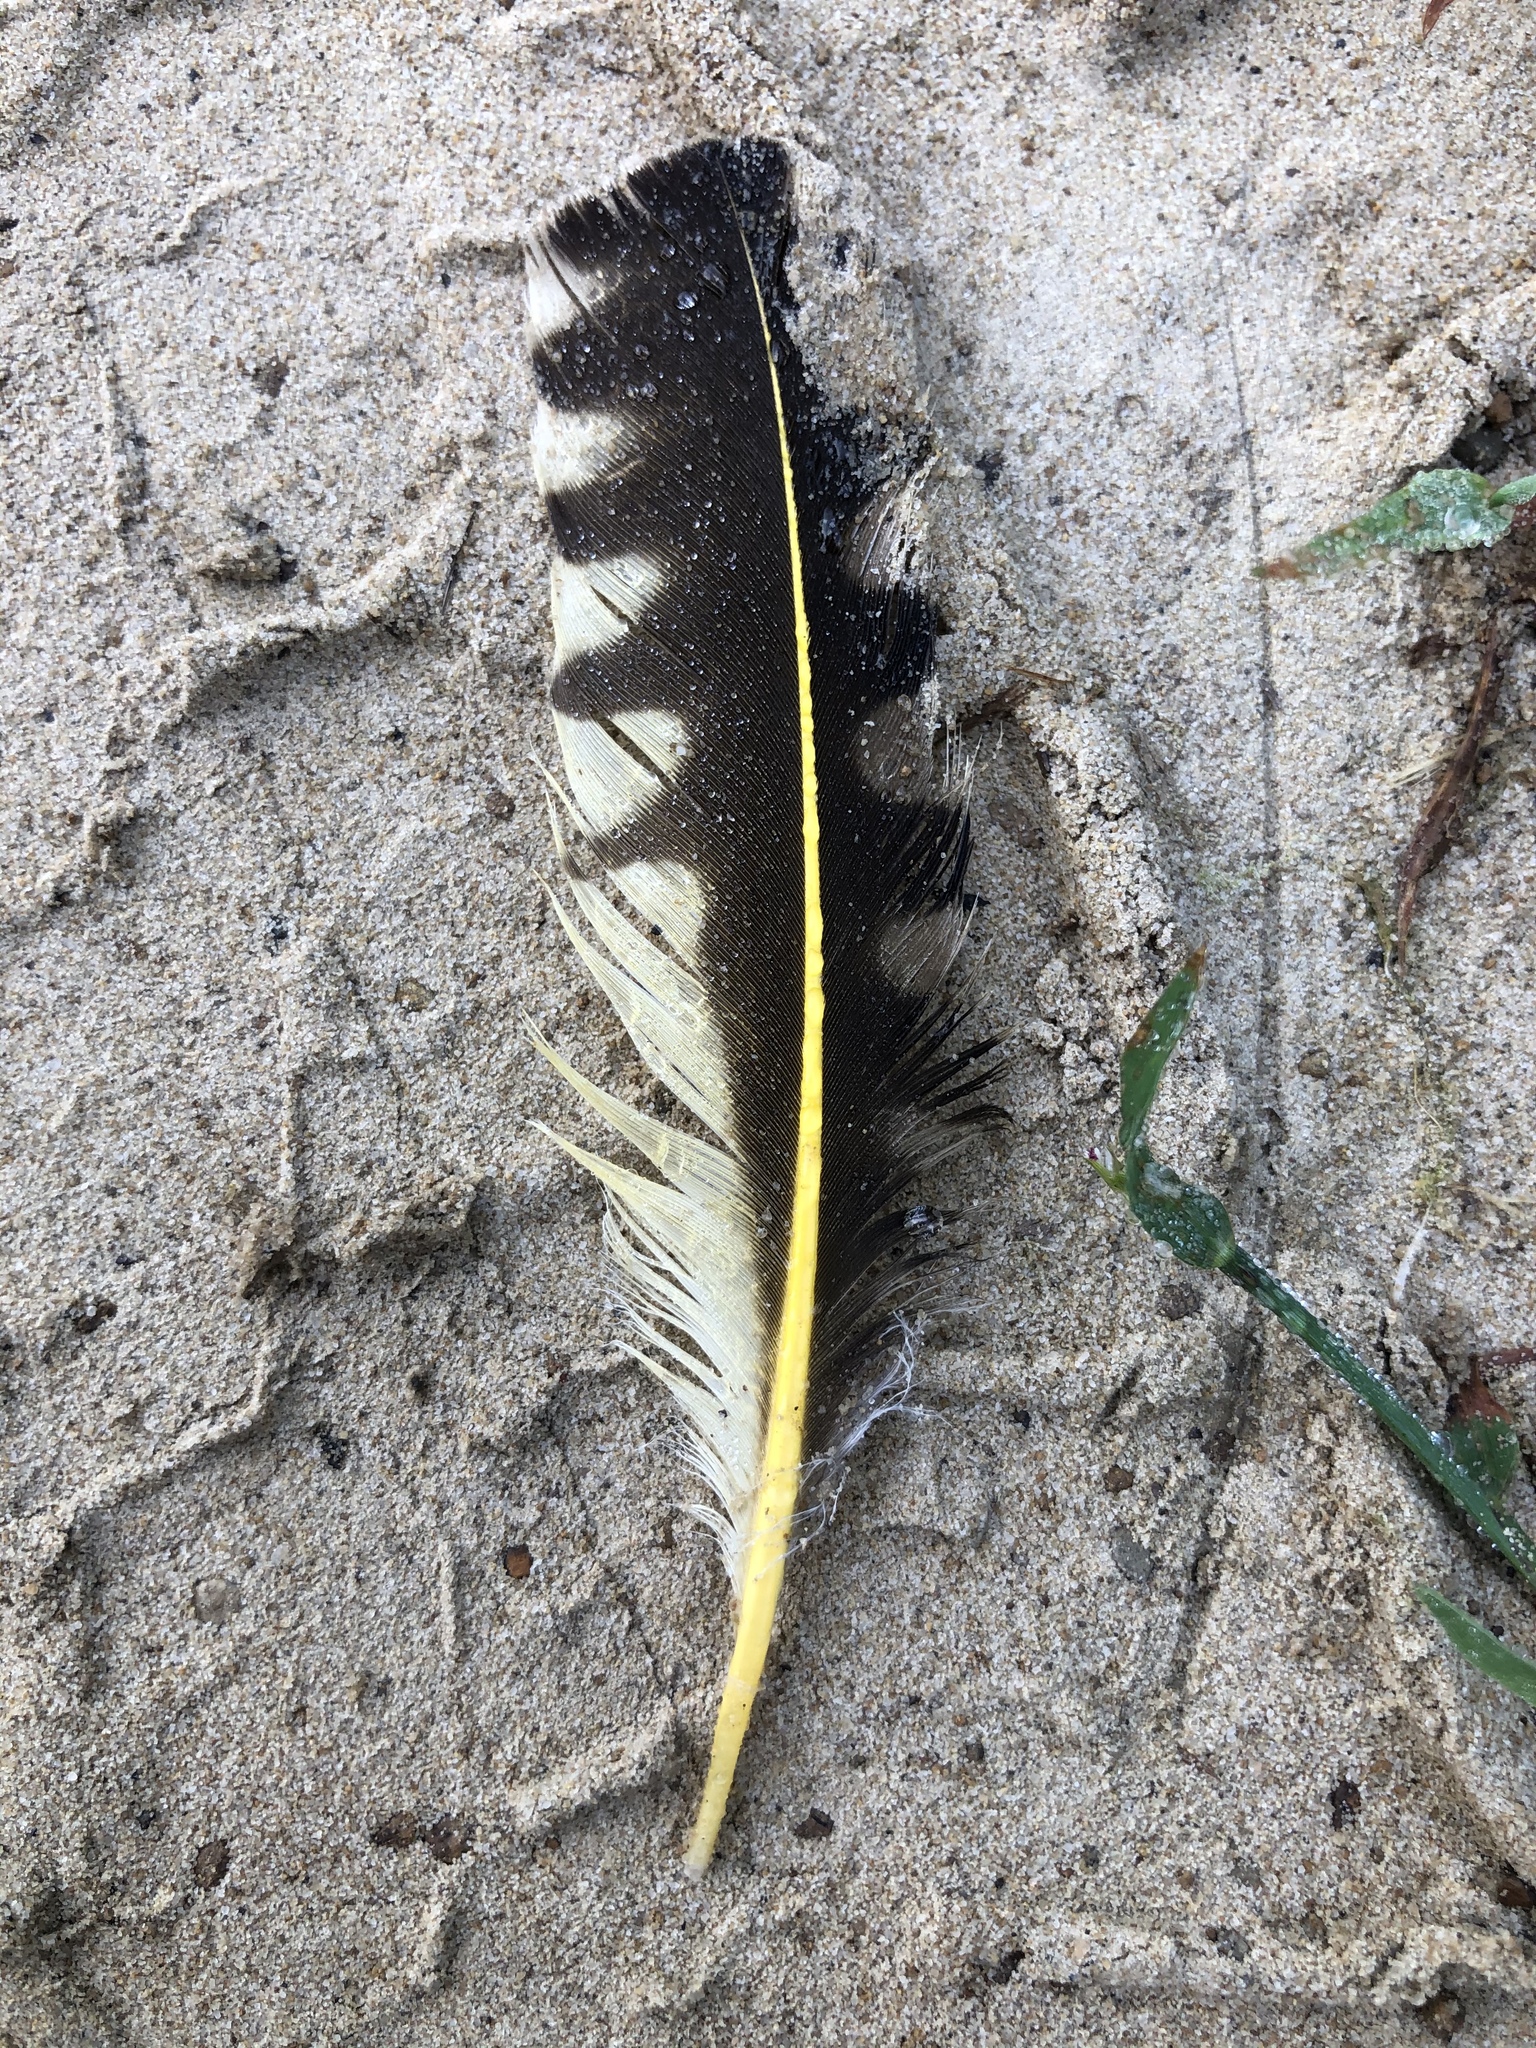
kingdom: Animalia
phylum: Chordata
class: Aves
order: Piciformes
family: Picidae
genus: Colaptes
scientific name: Colaptes auratus
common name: Northern flicker
